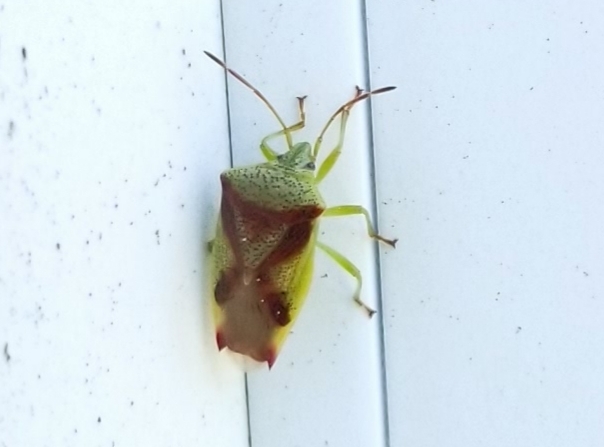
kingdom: Animalia
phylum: Arthropoda
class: Insecta
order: Hemiptera
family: Acanthosomatidae
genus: Elasmostethus
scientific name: Elasmostethus cruciatus
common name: Red-cross shield bug
